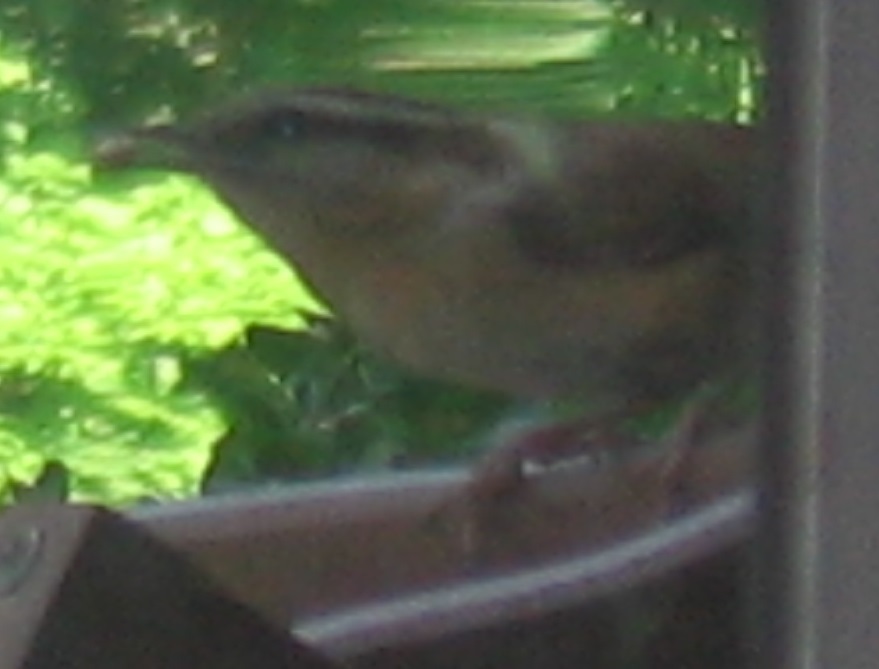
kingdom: Animalia
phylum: Chordata
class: Aves
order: Passeriformes
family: Troglodytidae
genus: Thryothorus
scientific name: Thryothorus ludovicianus
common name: Carolina wren
